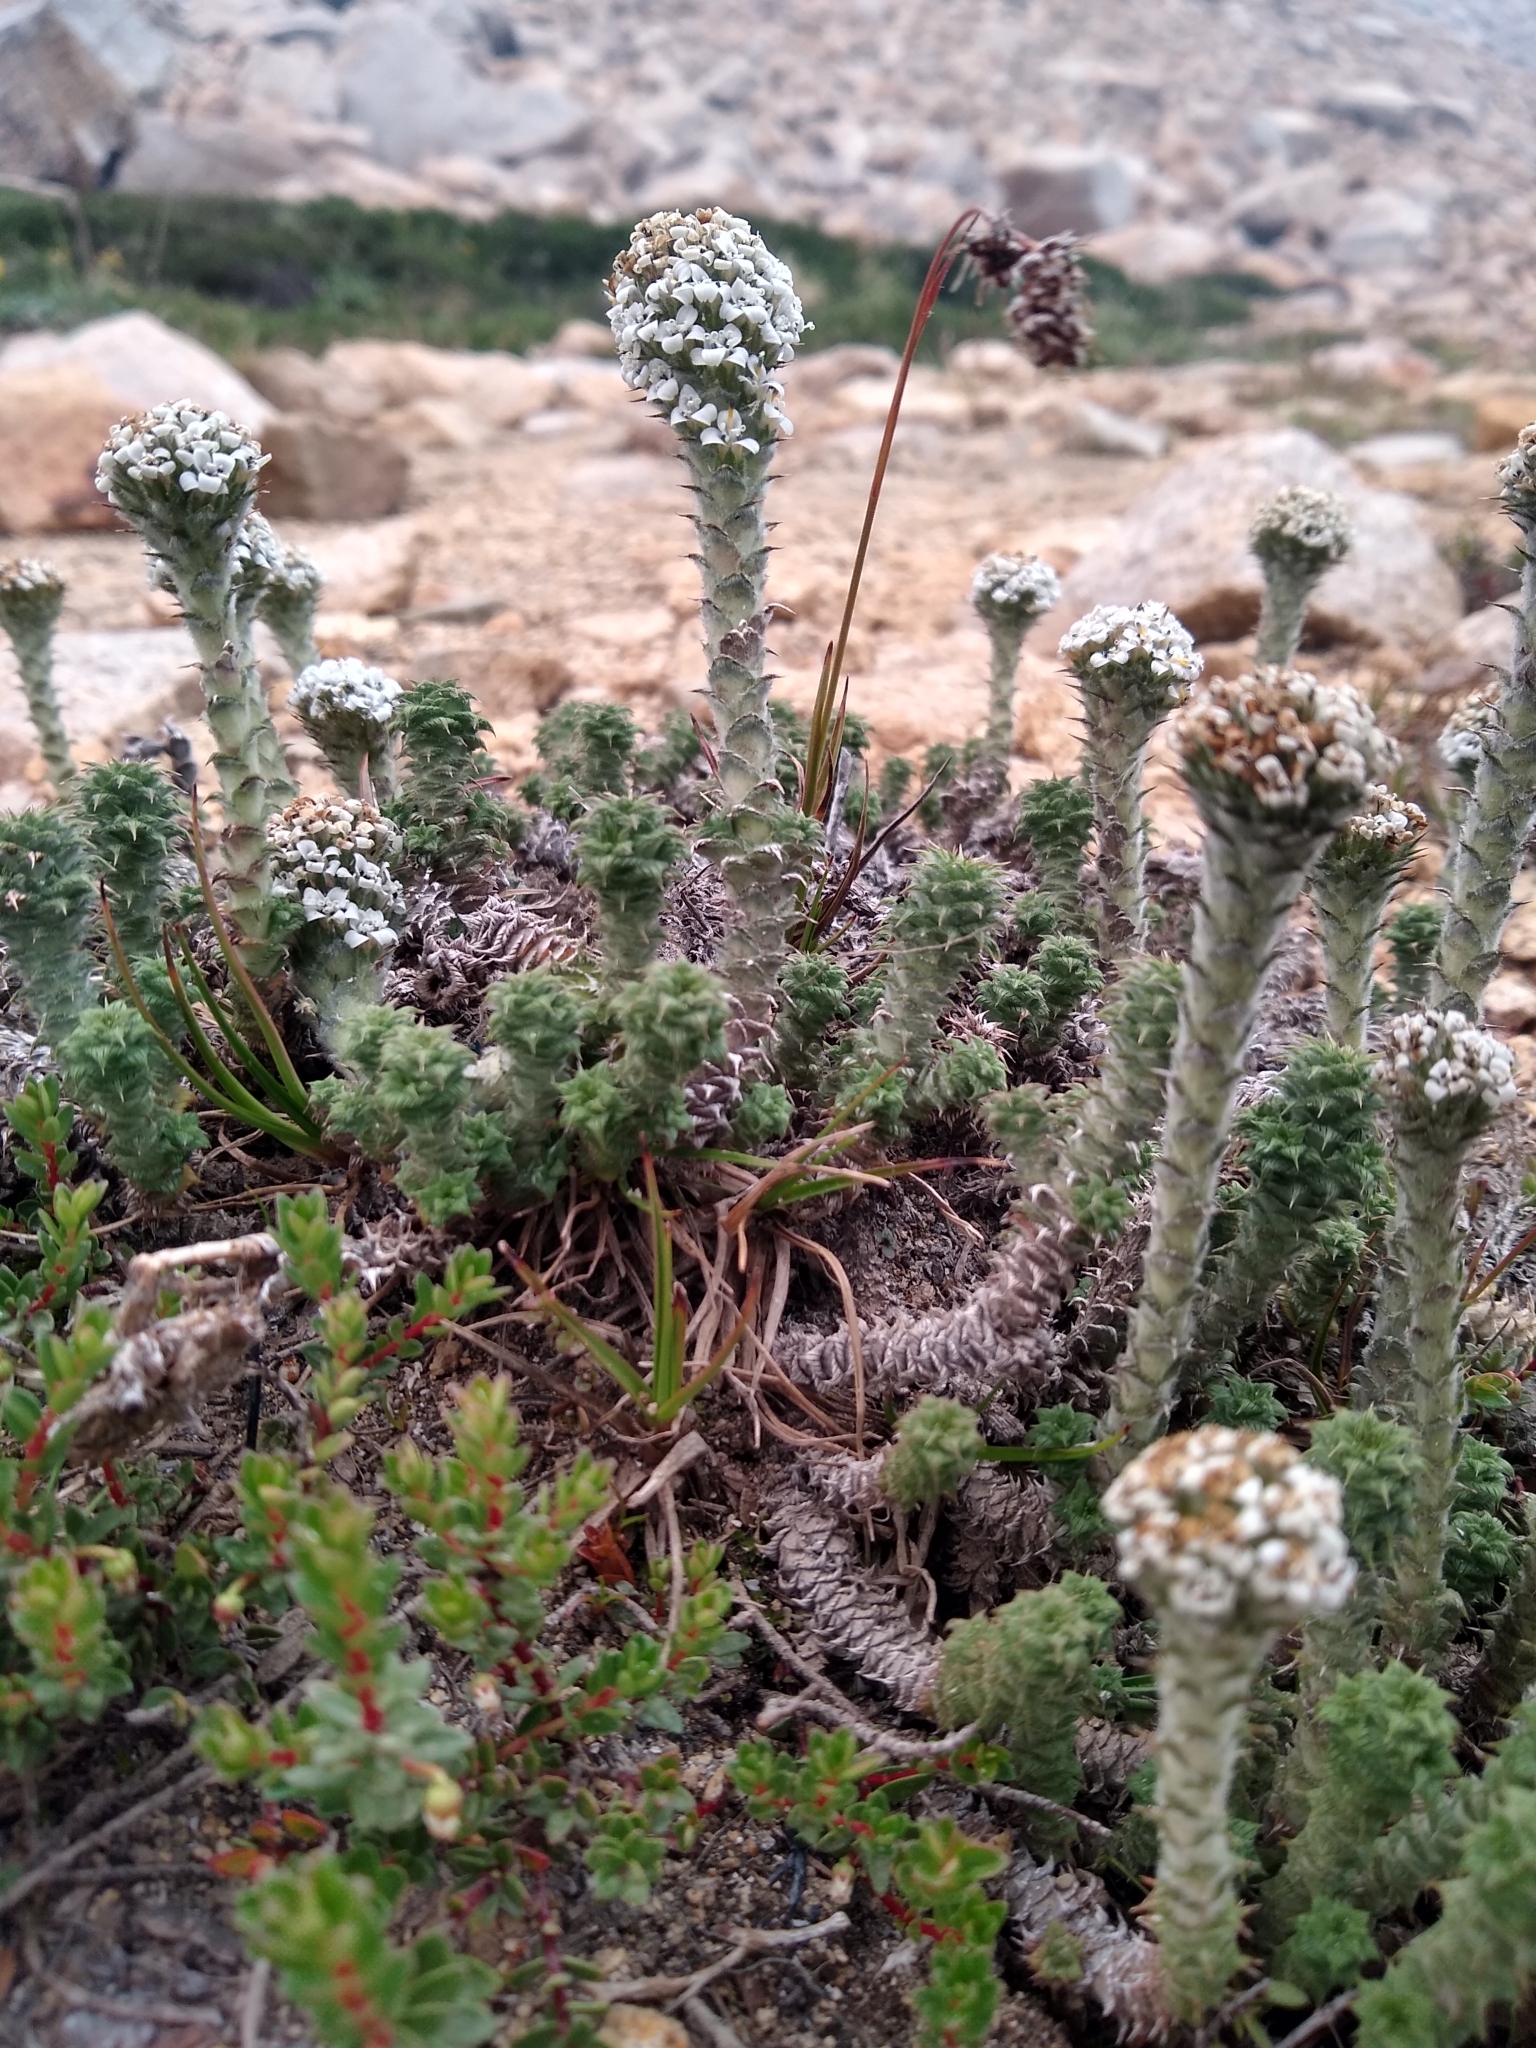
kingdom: Plantae
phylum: Tracheophyta
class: Magnoliopsida
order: Asterales
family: Asteraceae
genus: Nassauvia
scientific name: Nassauvia revoluta
